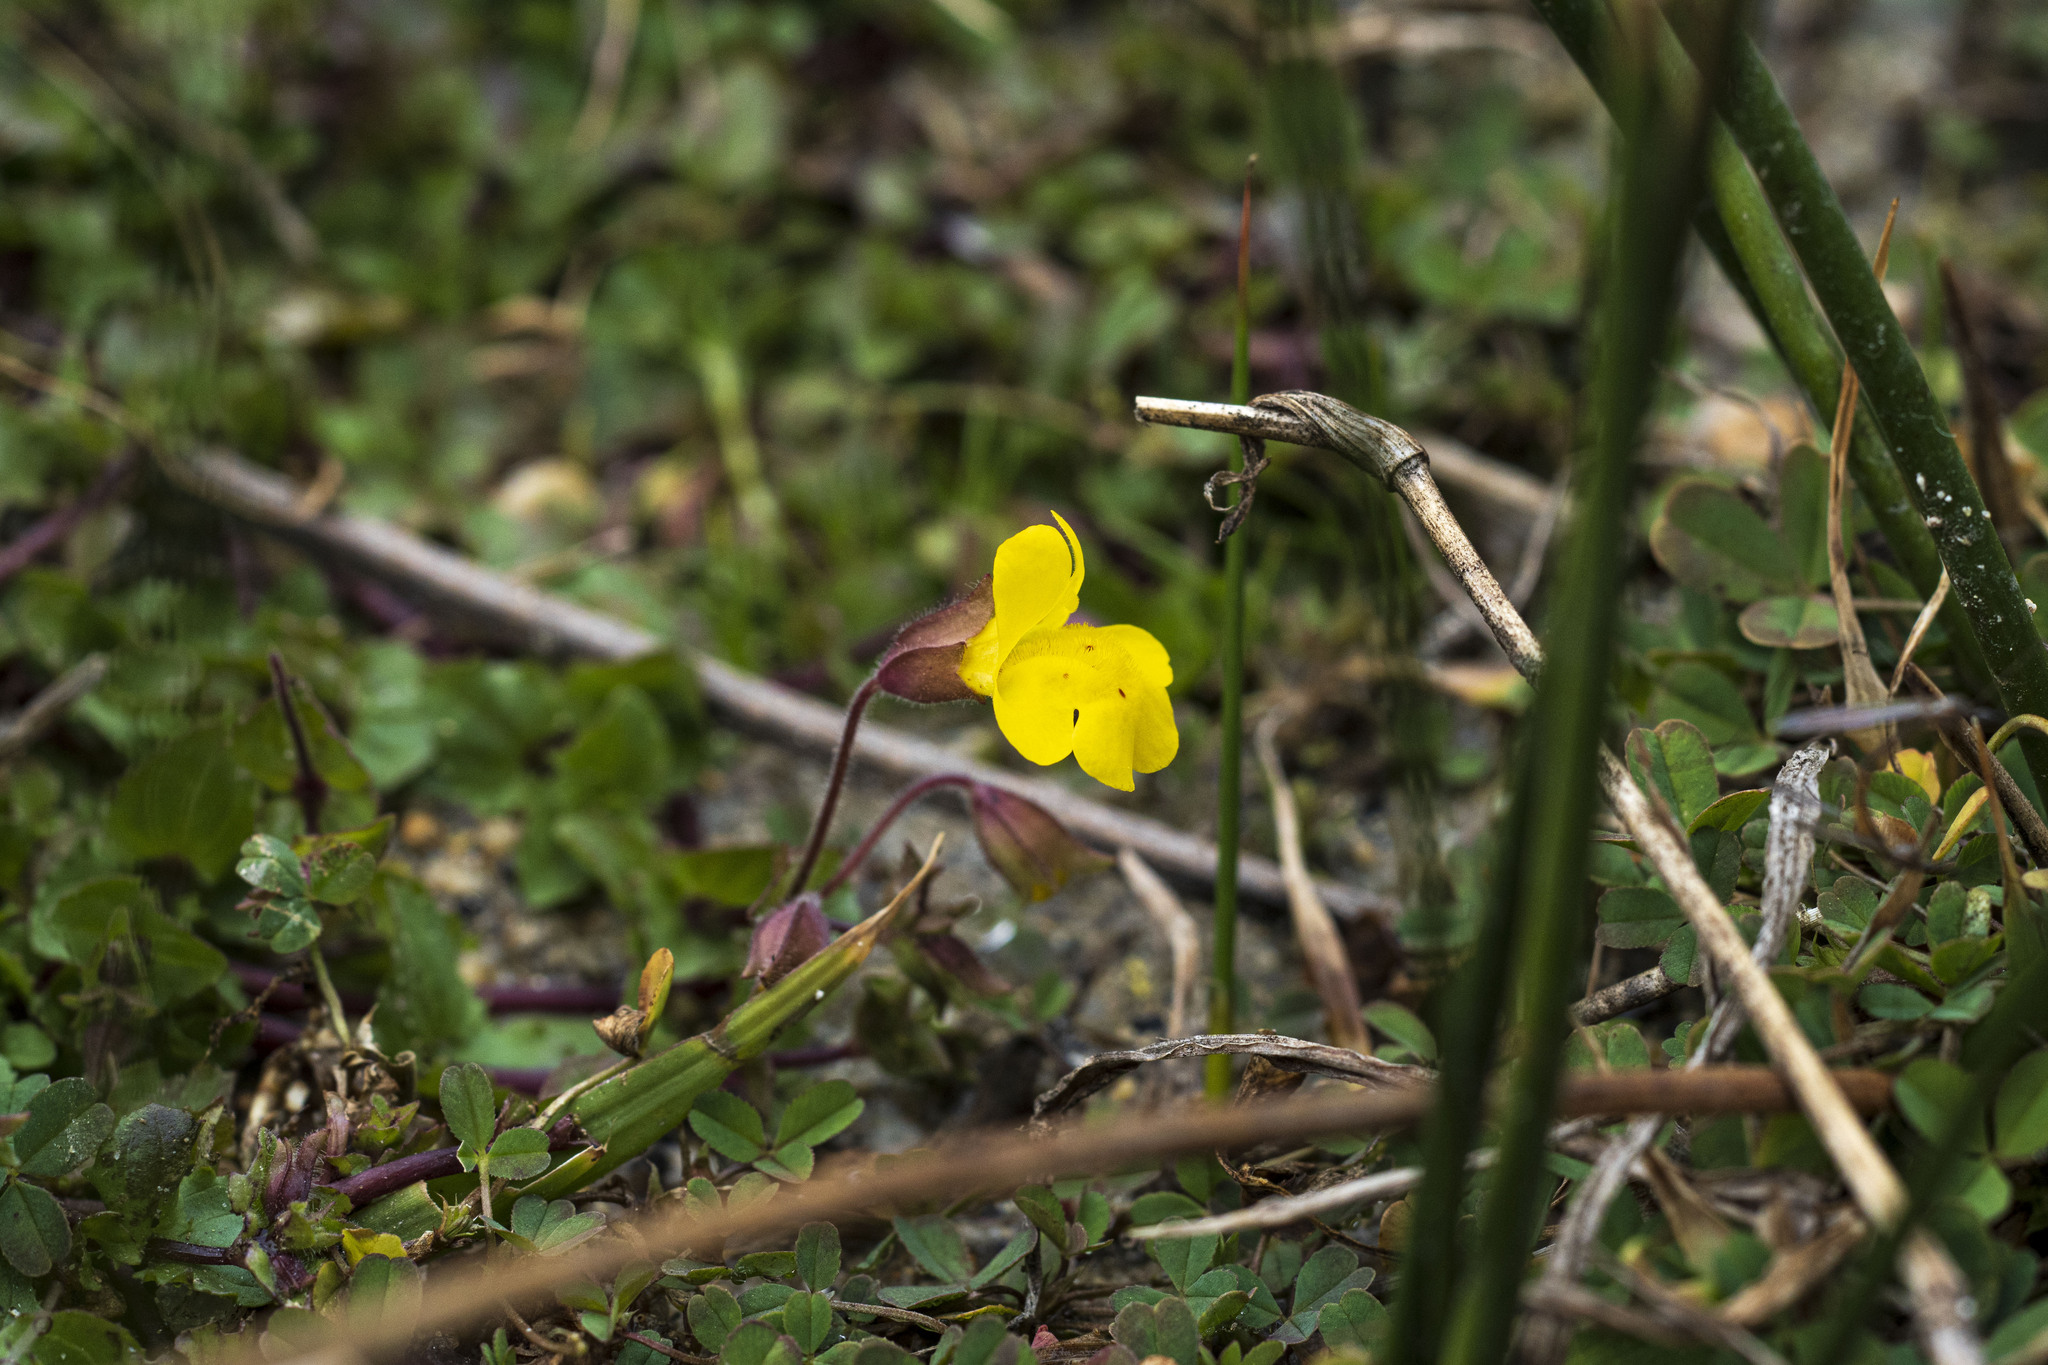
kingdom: Plantae
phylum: Tracheophyta
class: Magnoliopsida
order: Lamiales
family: Phrymaceae
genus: Erythranthe
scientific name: Erythranthe lagunensis
